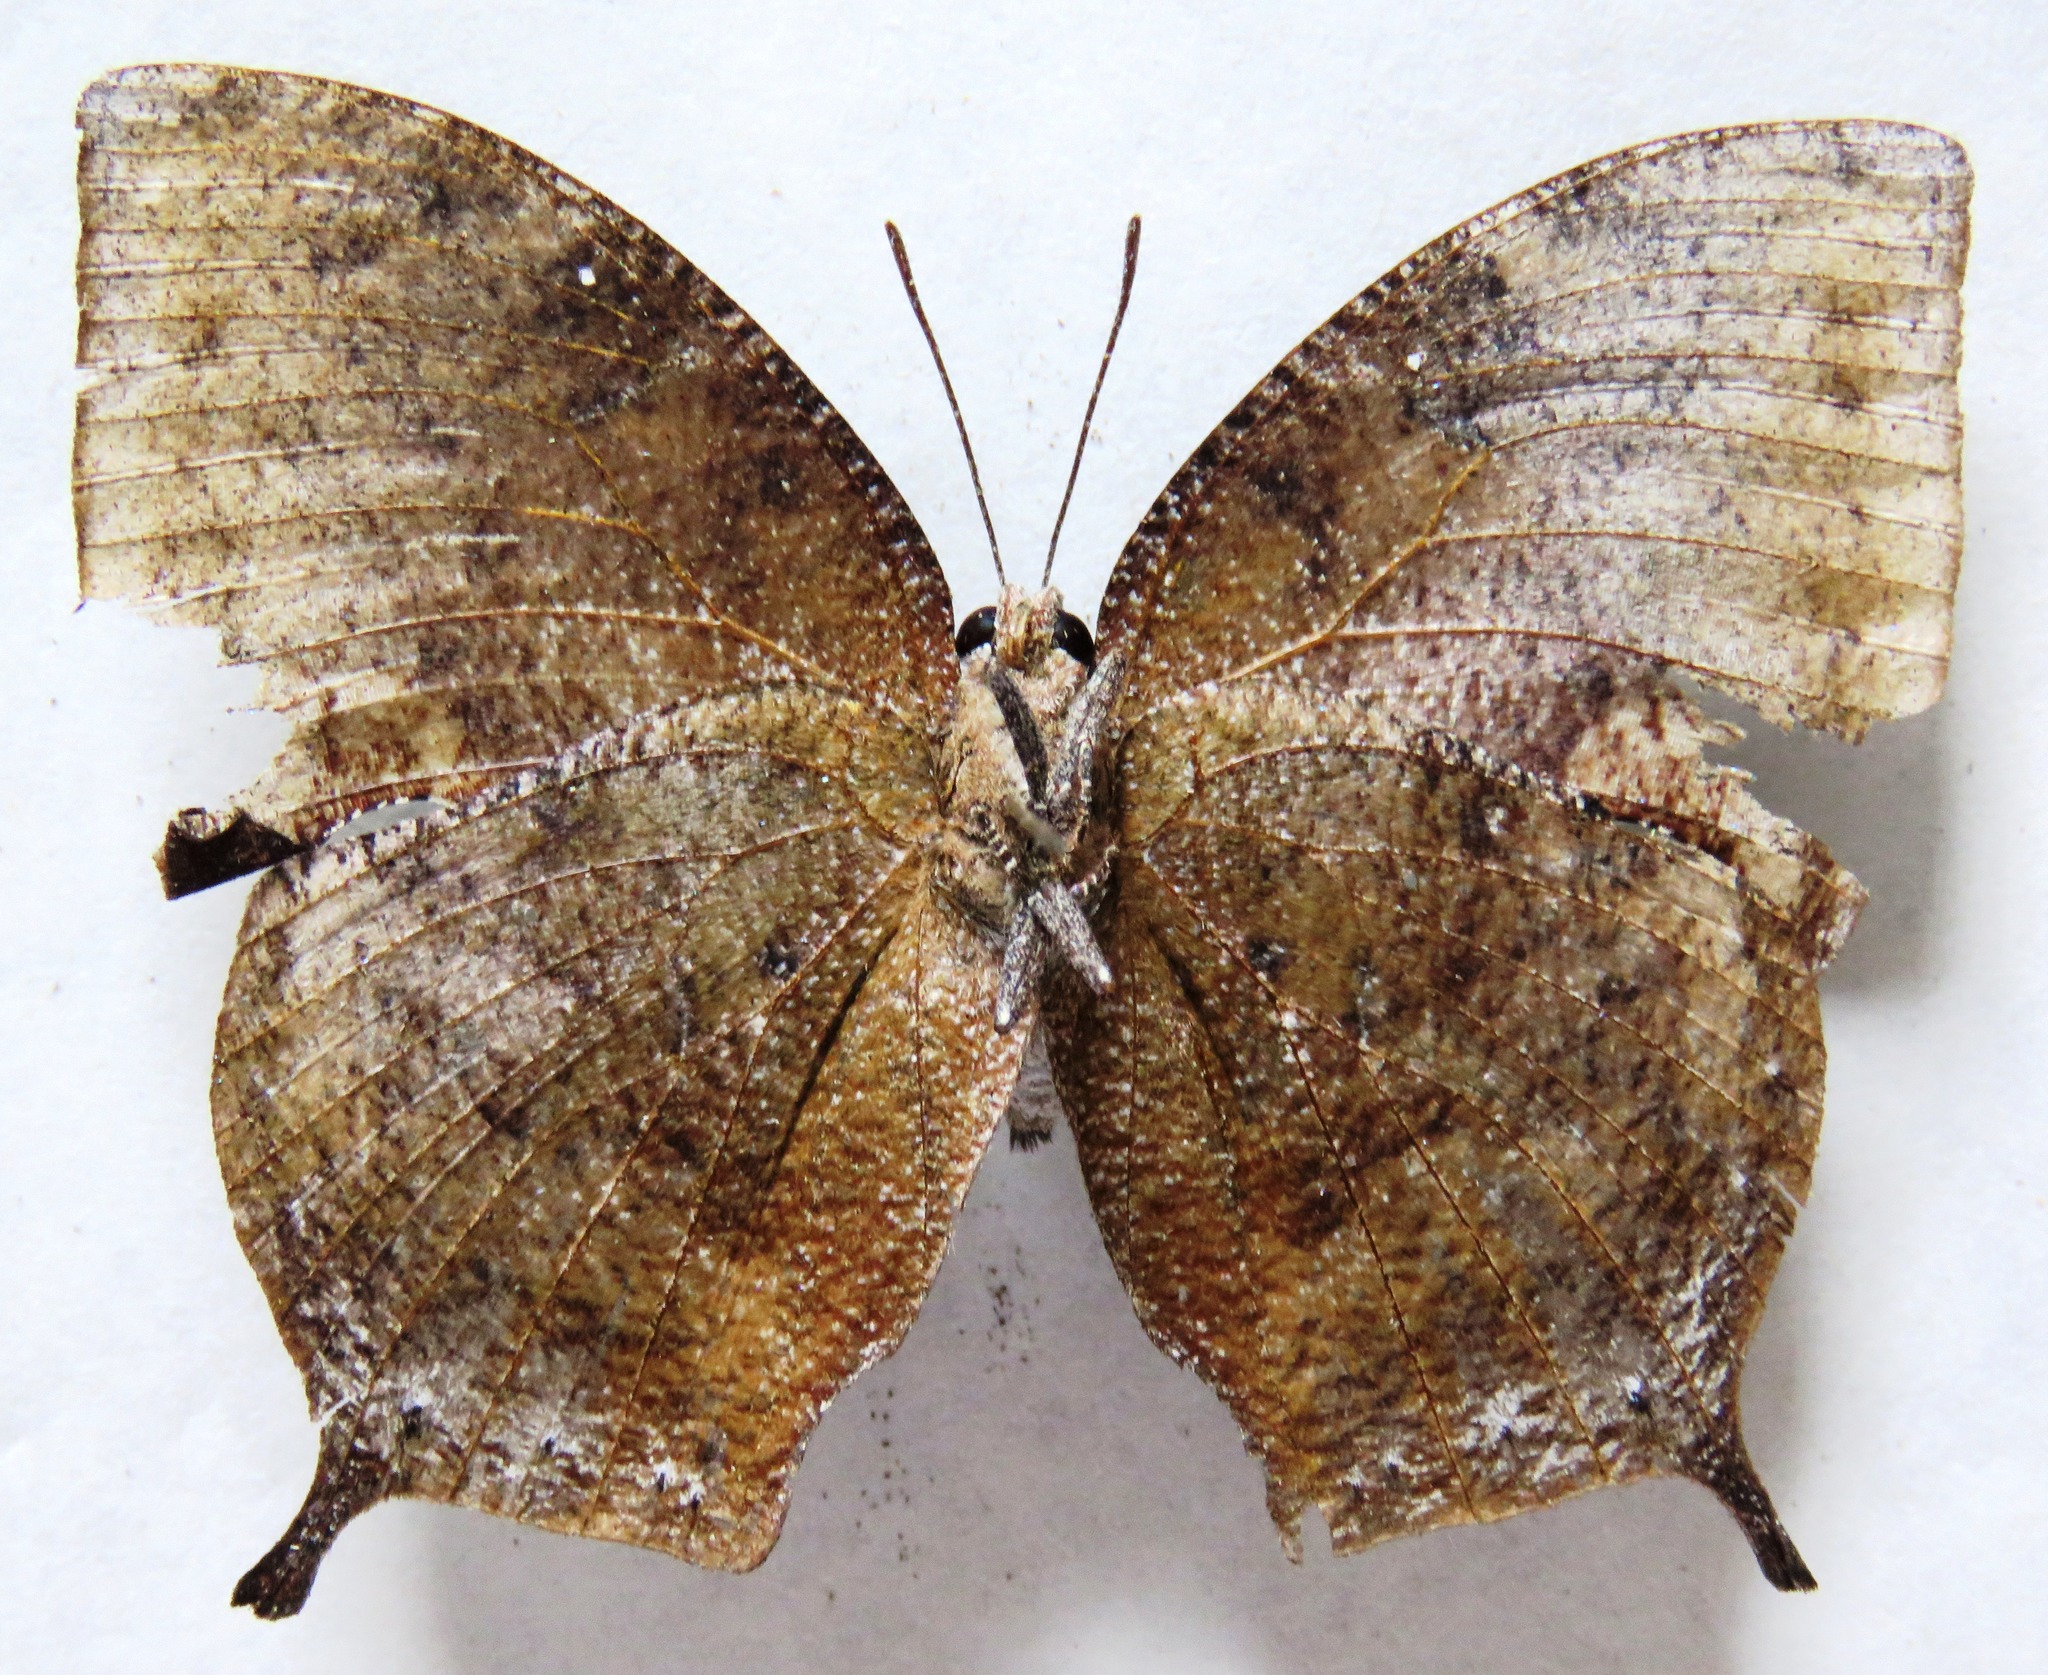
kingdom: Animalia
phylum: Arthropoda
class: Insecta
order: Lepidoptera
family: Nymphalidae
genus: Memphis
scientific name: Memphis moruus
